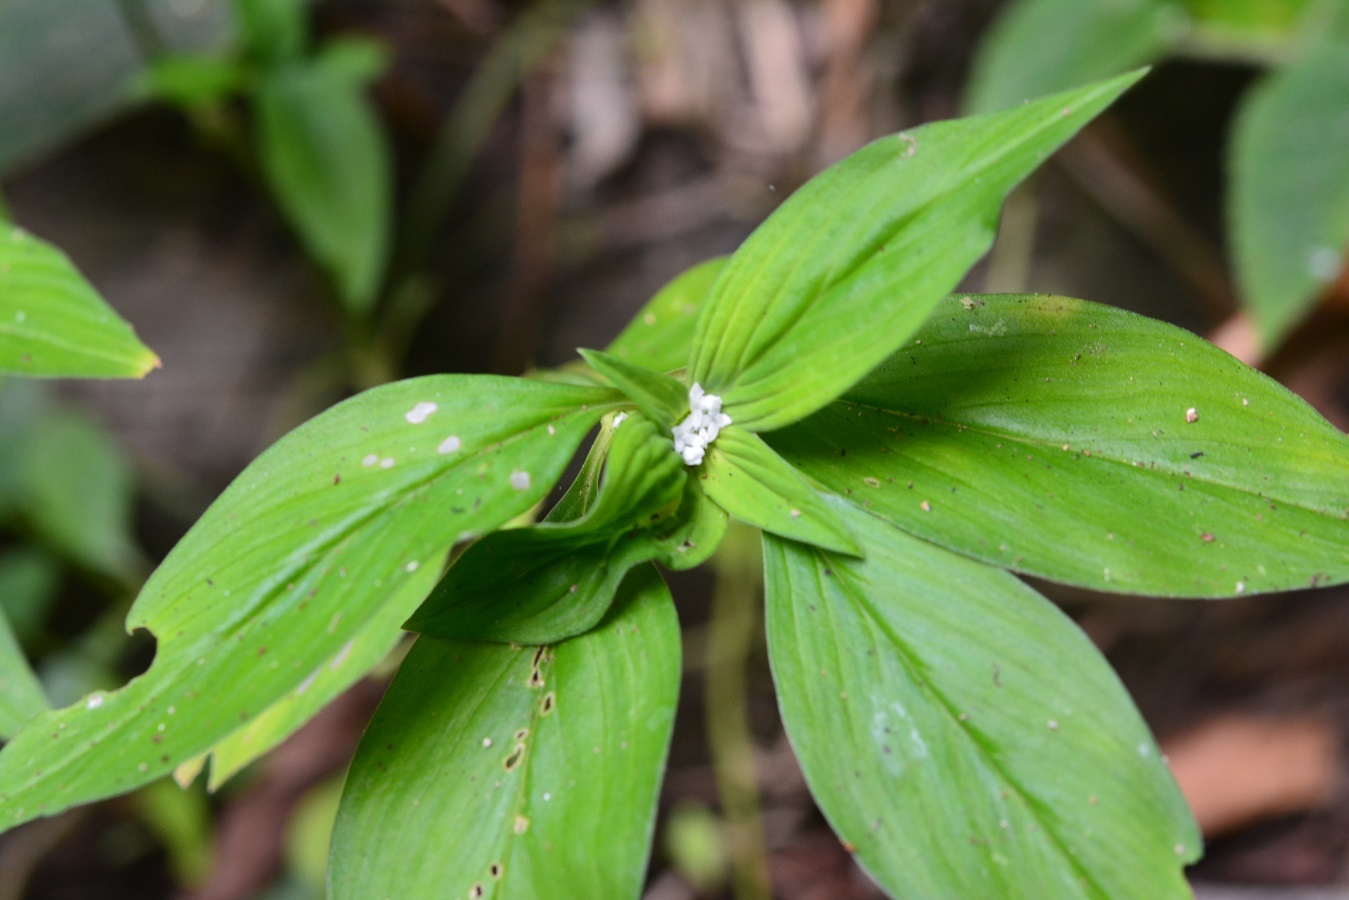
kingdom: Plantae
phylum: Tracheophyta
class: Magnoliopsida
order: Gentianales
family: Rubiaceae
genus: Spermacoce
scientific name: Spermacoce remota
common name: Woodland false buttonweed
